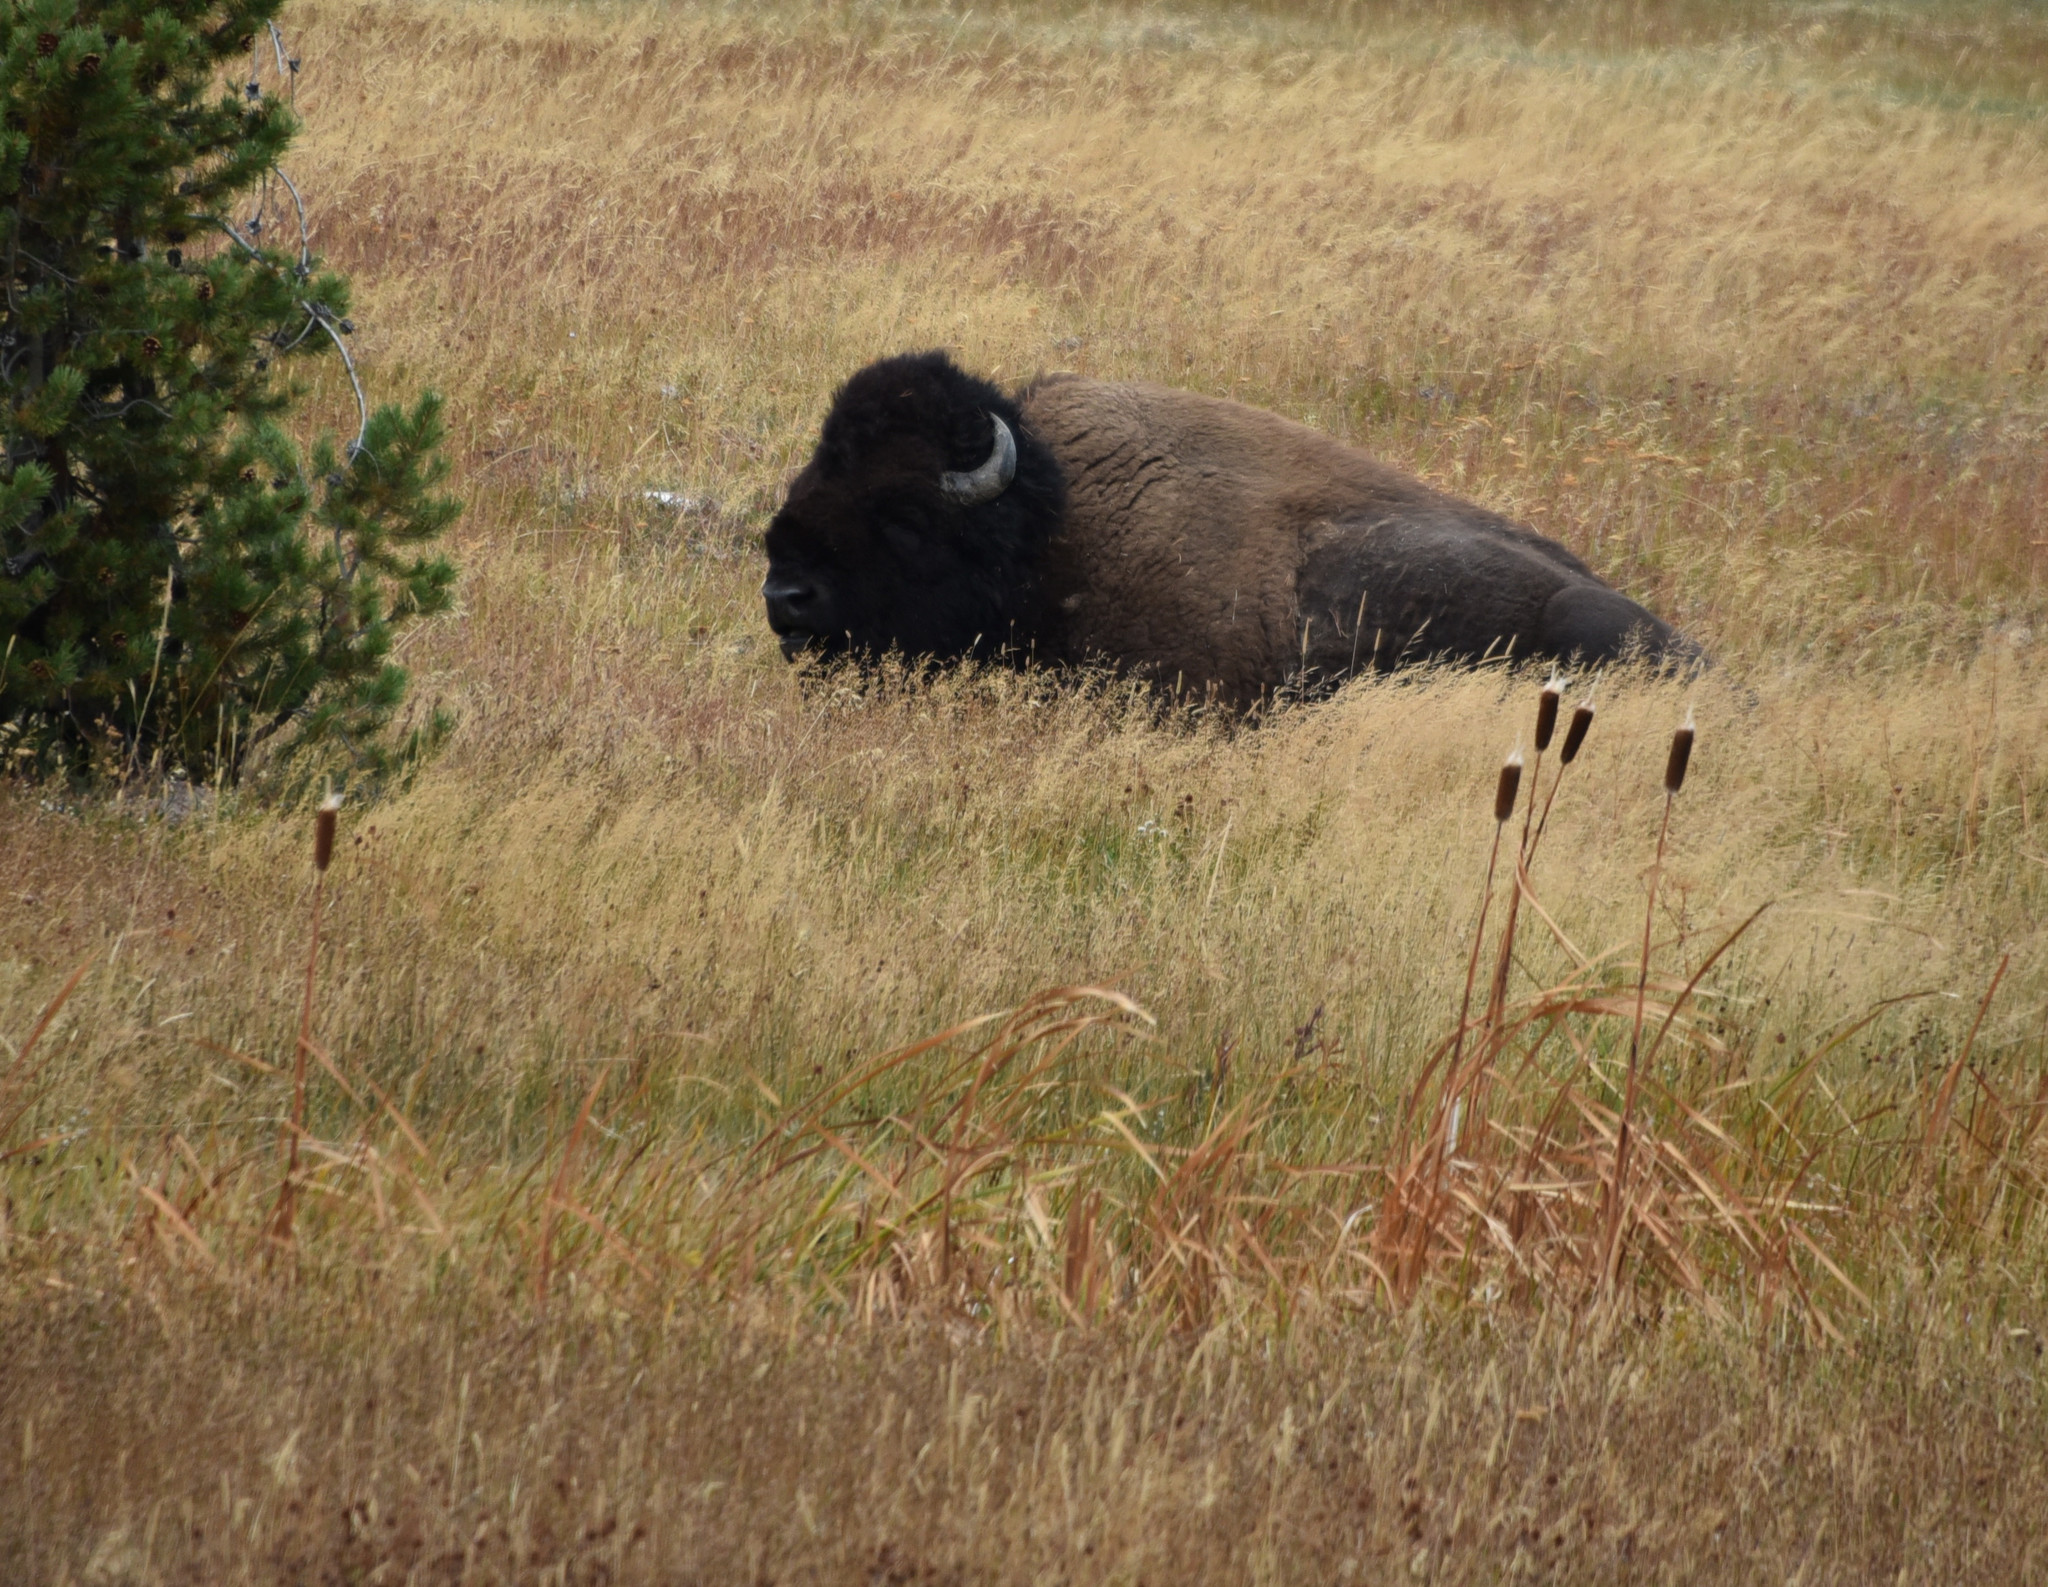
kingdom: Animalia
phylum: Chordata
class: Mammalia
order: Artiodactyla
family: Bovidae
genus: Bison
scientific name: Bison bison
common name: American bison
